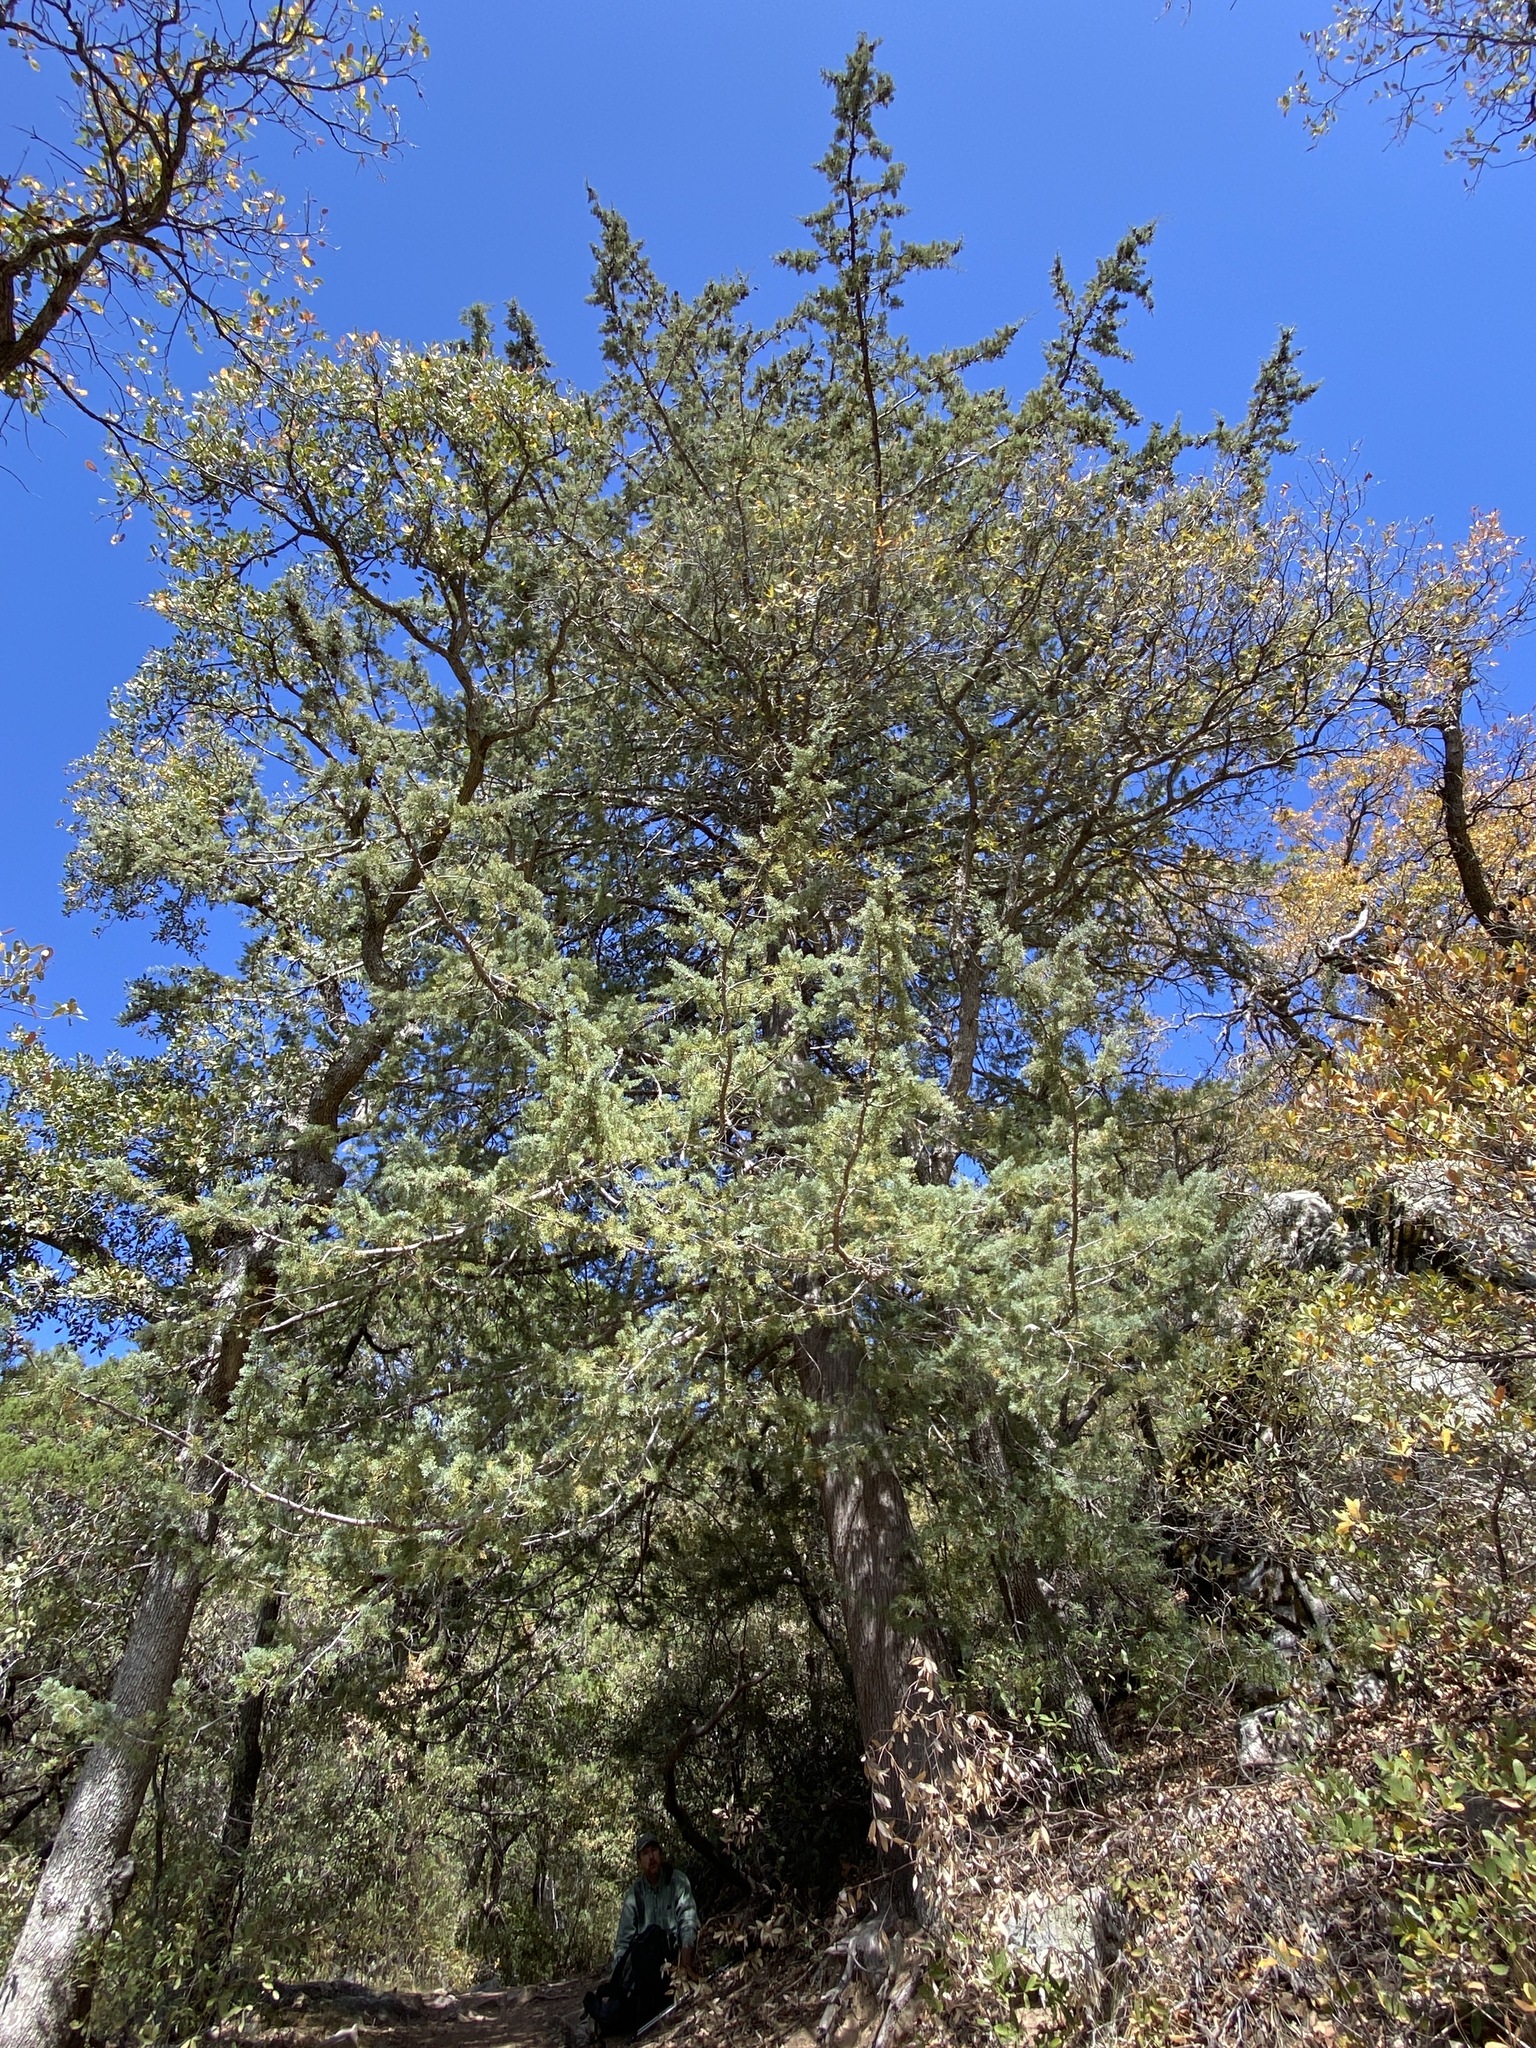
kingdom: Plantae
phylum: Tracheophyta
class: Pinopsida
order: Pinales
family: Cupressaceae
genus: Cupressus
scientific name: Cupressus arizonica
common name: Arizona cypress
